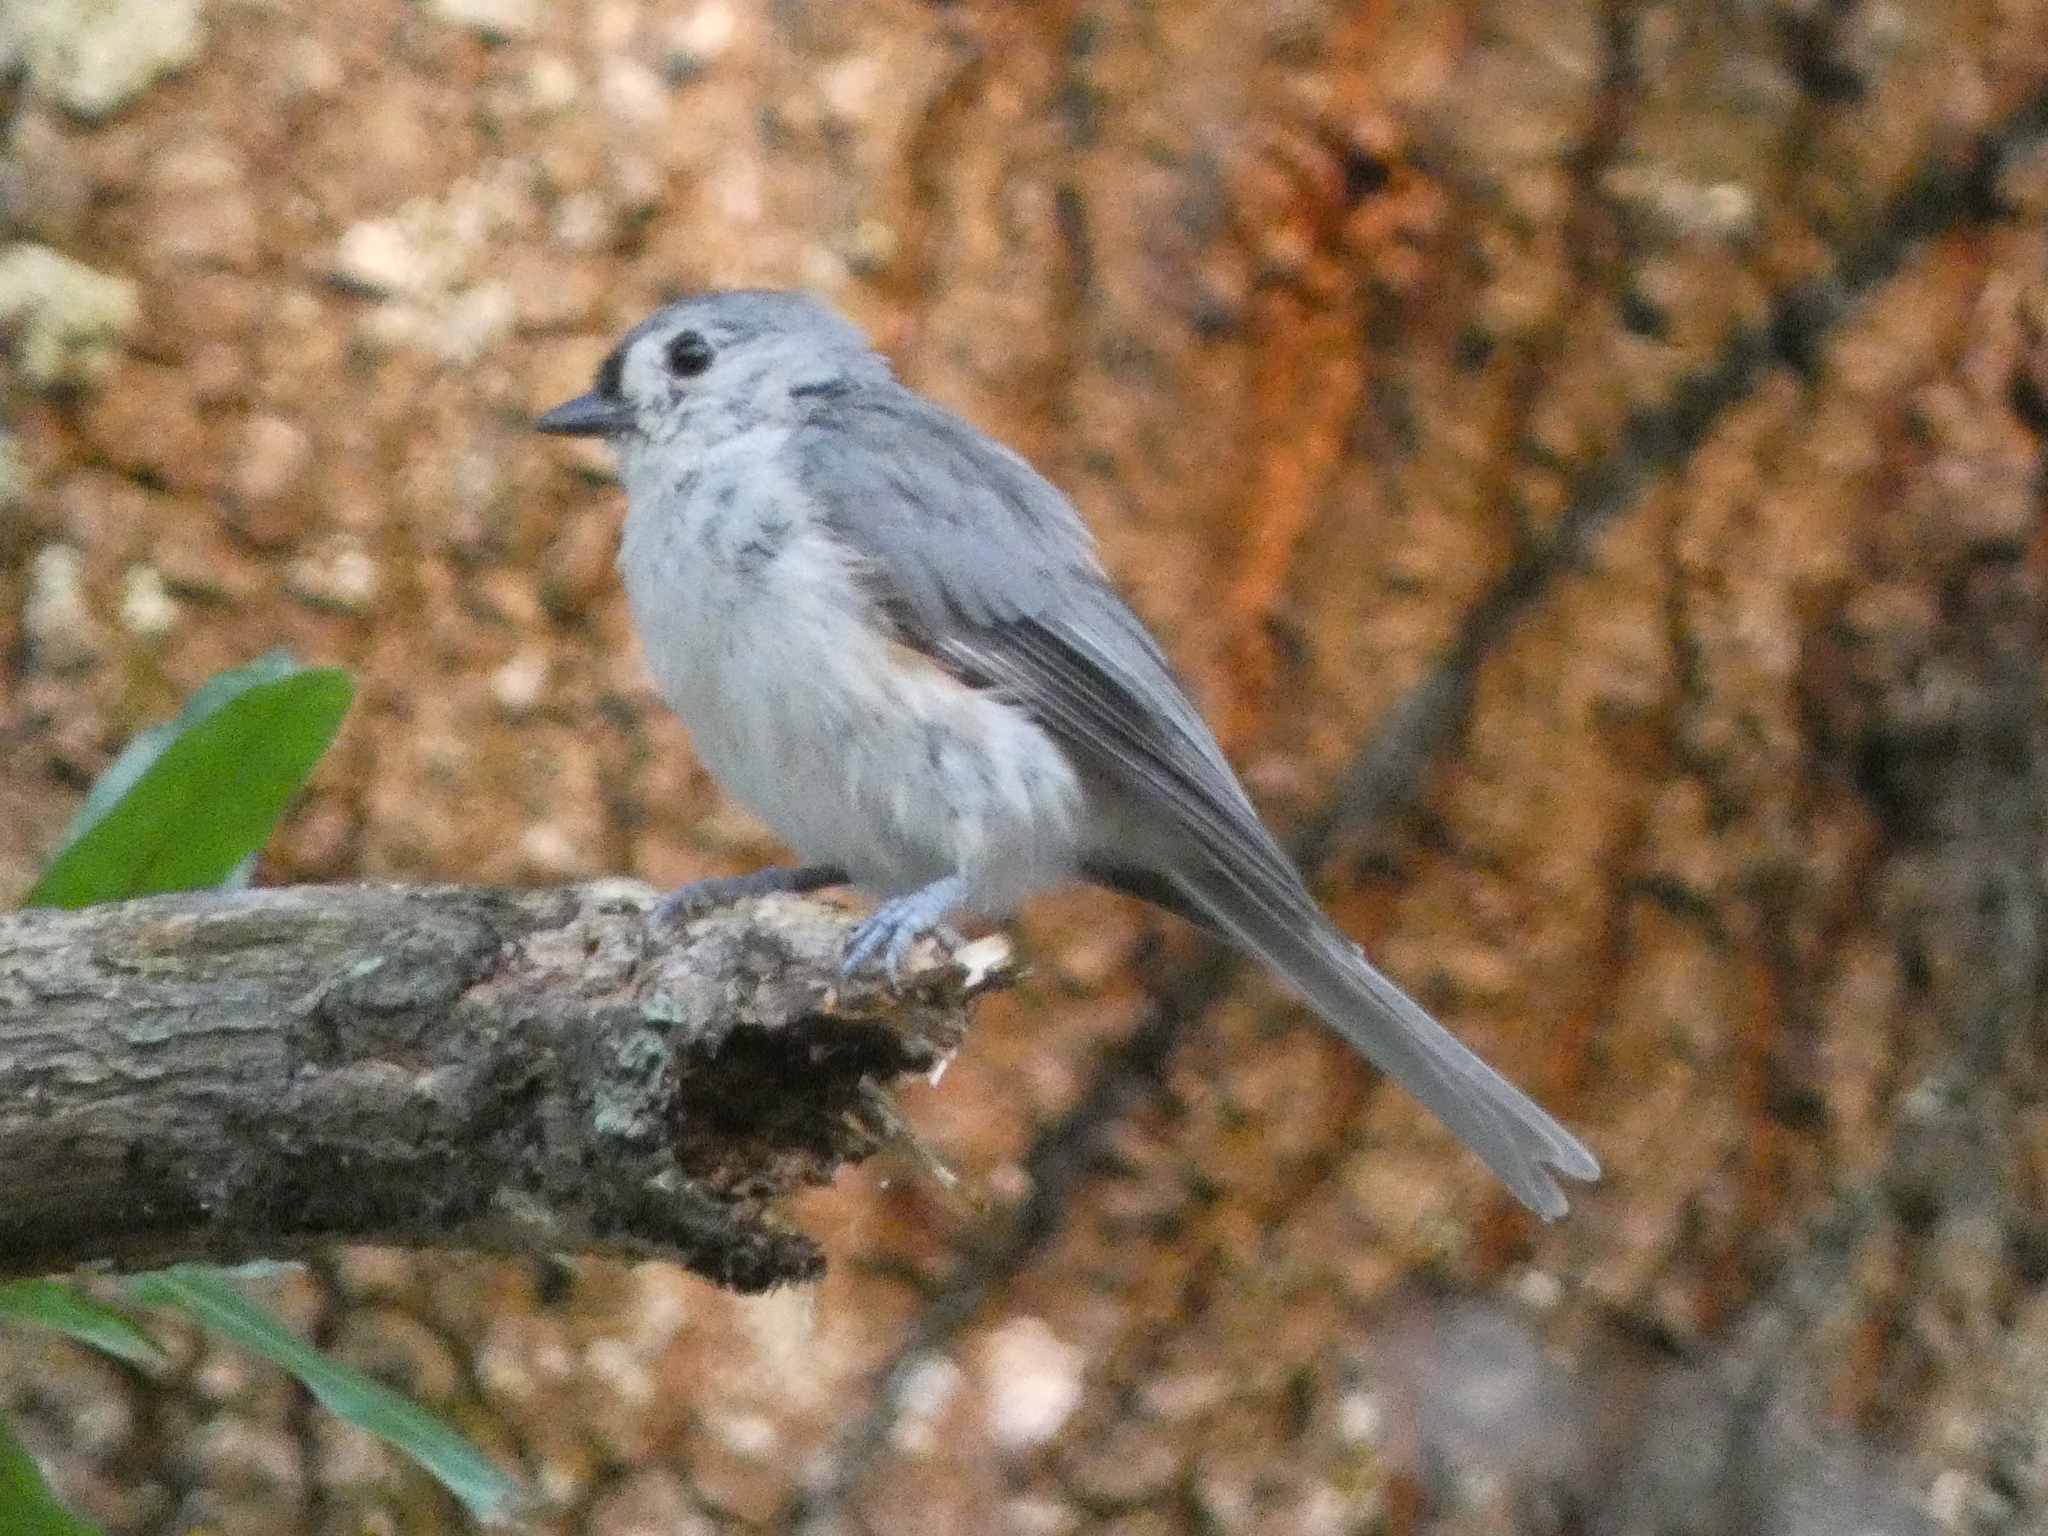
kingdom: Animalia
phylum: Chordata
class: Aves
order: Passeriformes
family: Paridae
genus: Baeolophus
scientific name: Baeolophus bicolor
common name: Tufted titmouse
